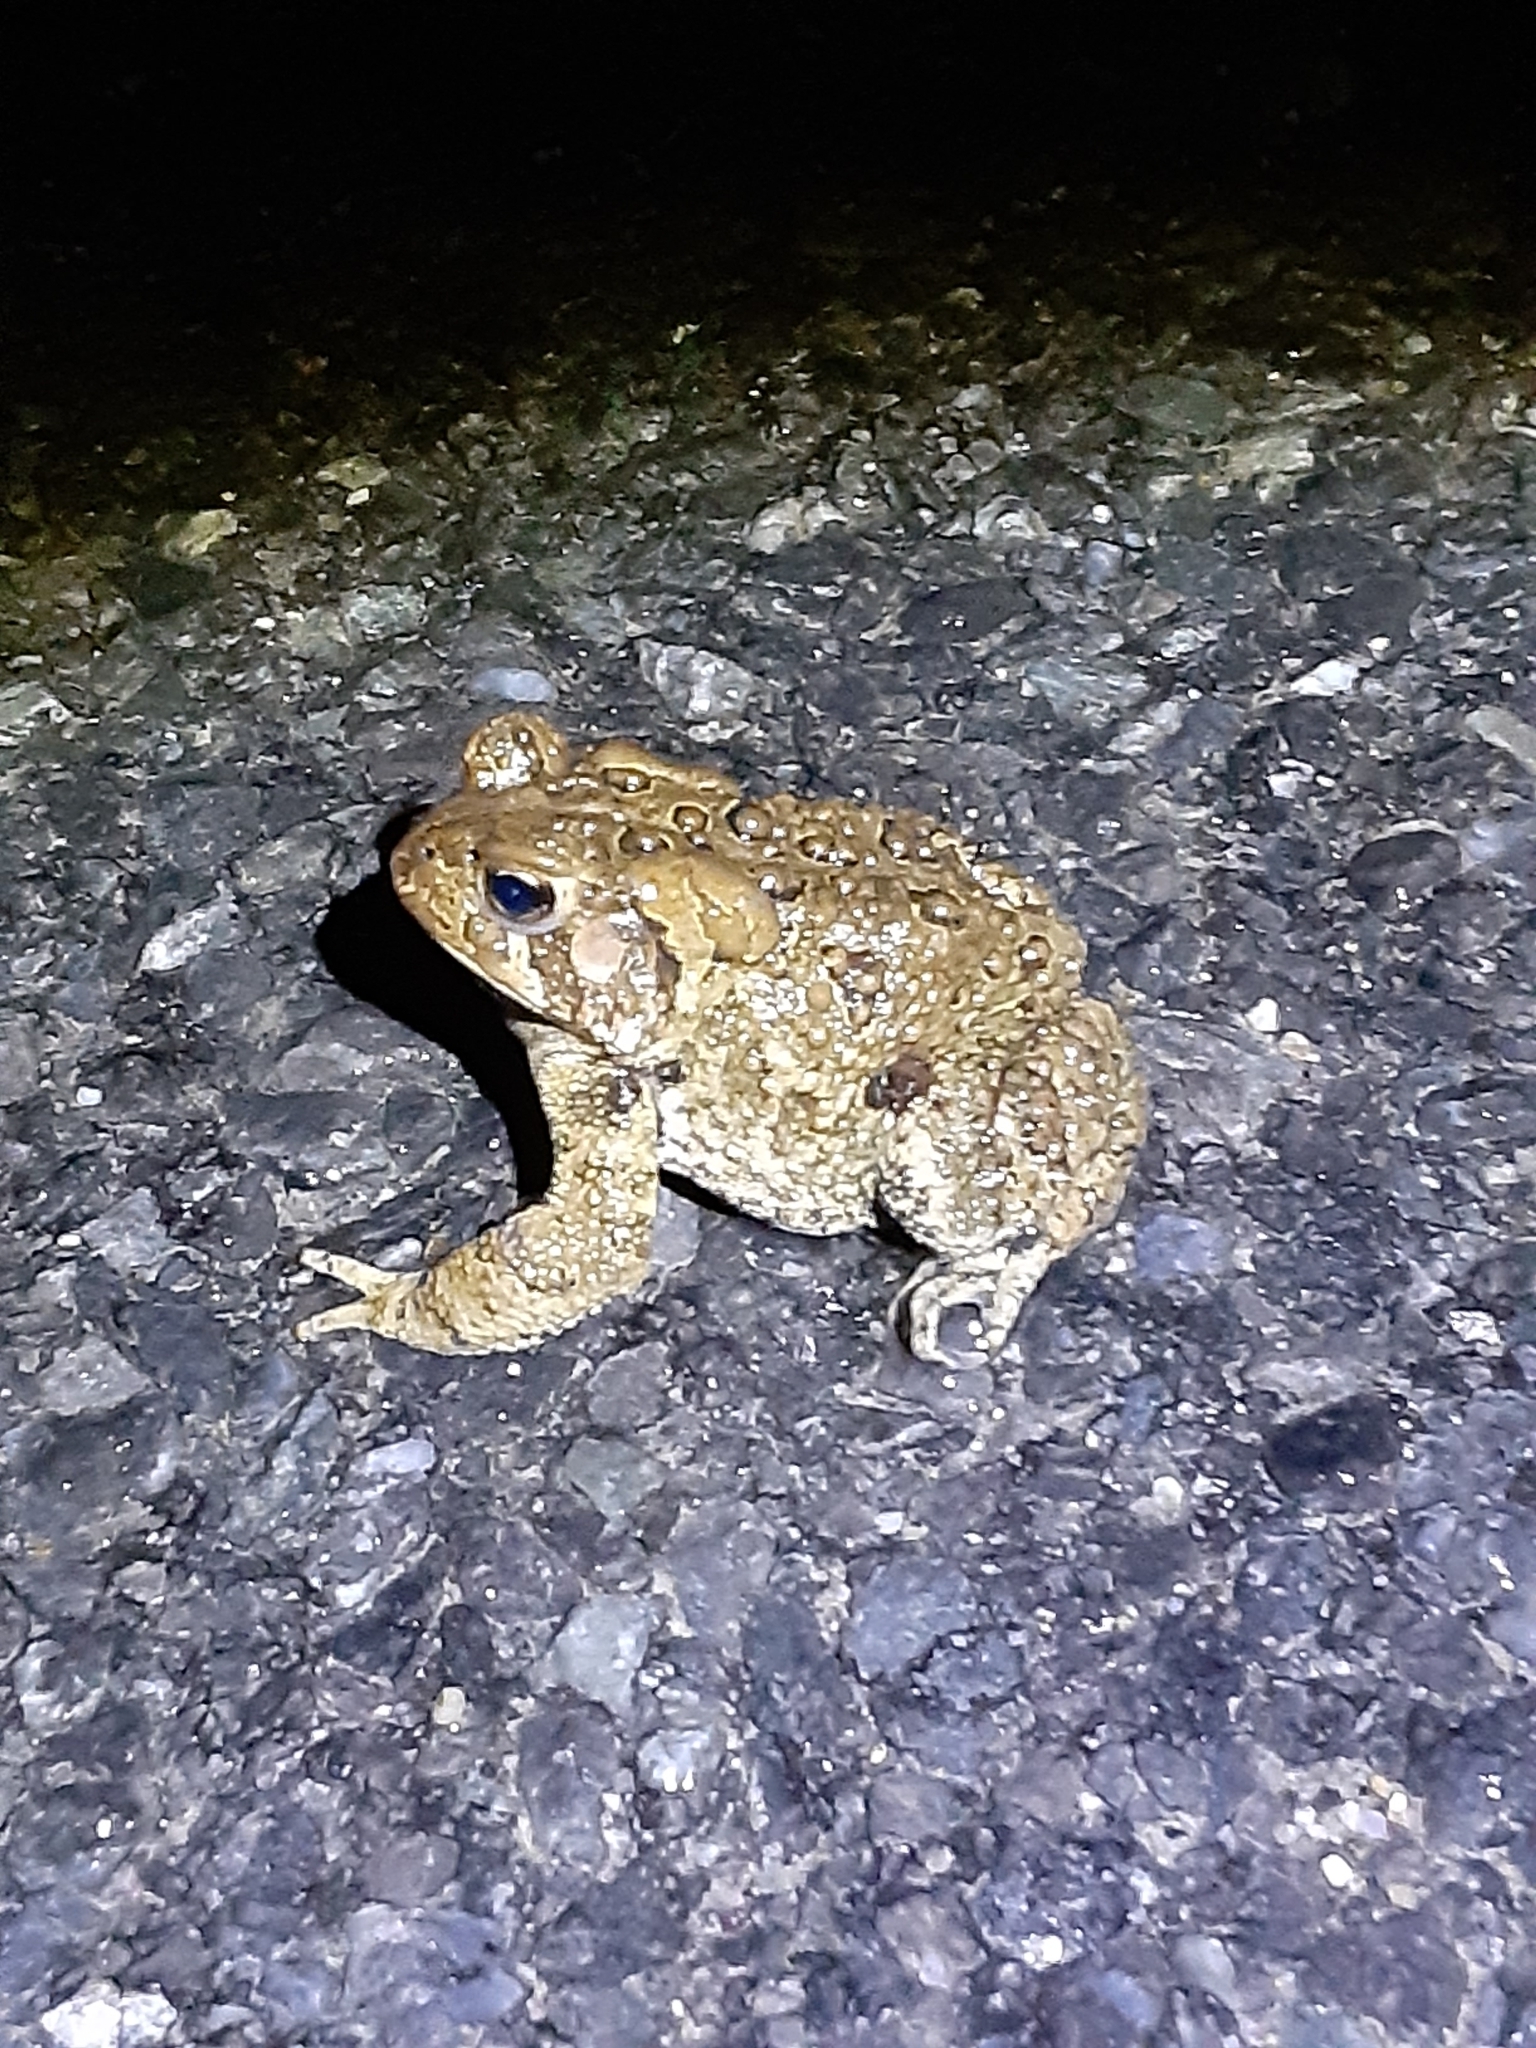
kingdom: Animalia
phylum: Chordata
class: Amphibia
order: Anura
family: Bufonidae
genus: Anaxyrus
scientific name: Anaxyrus americanus
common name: American toad
